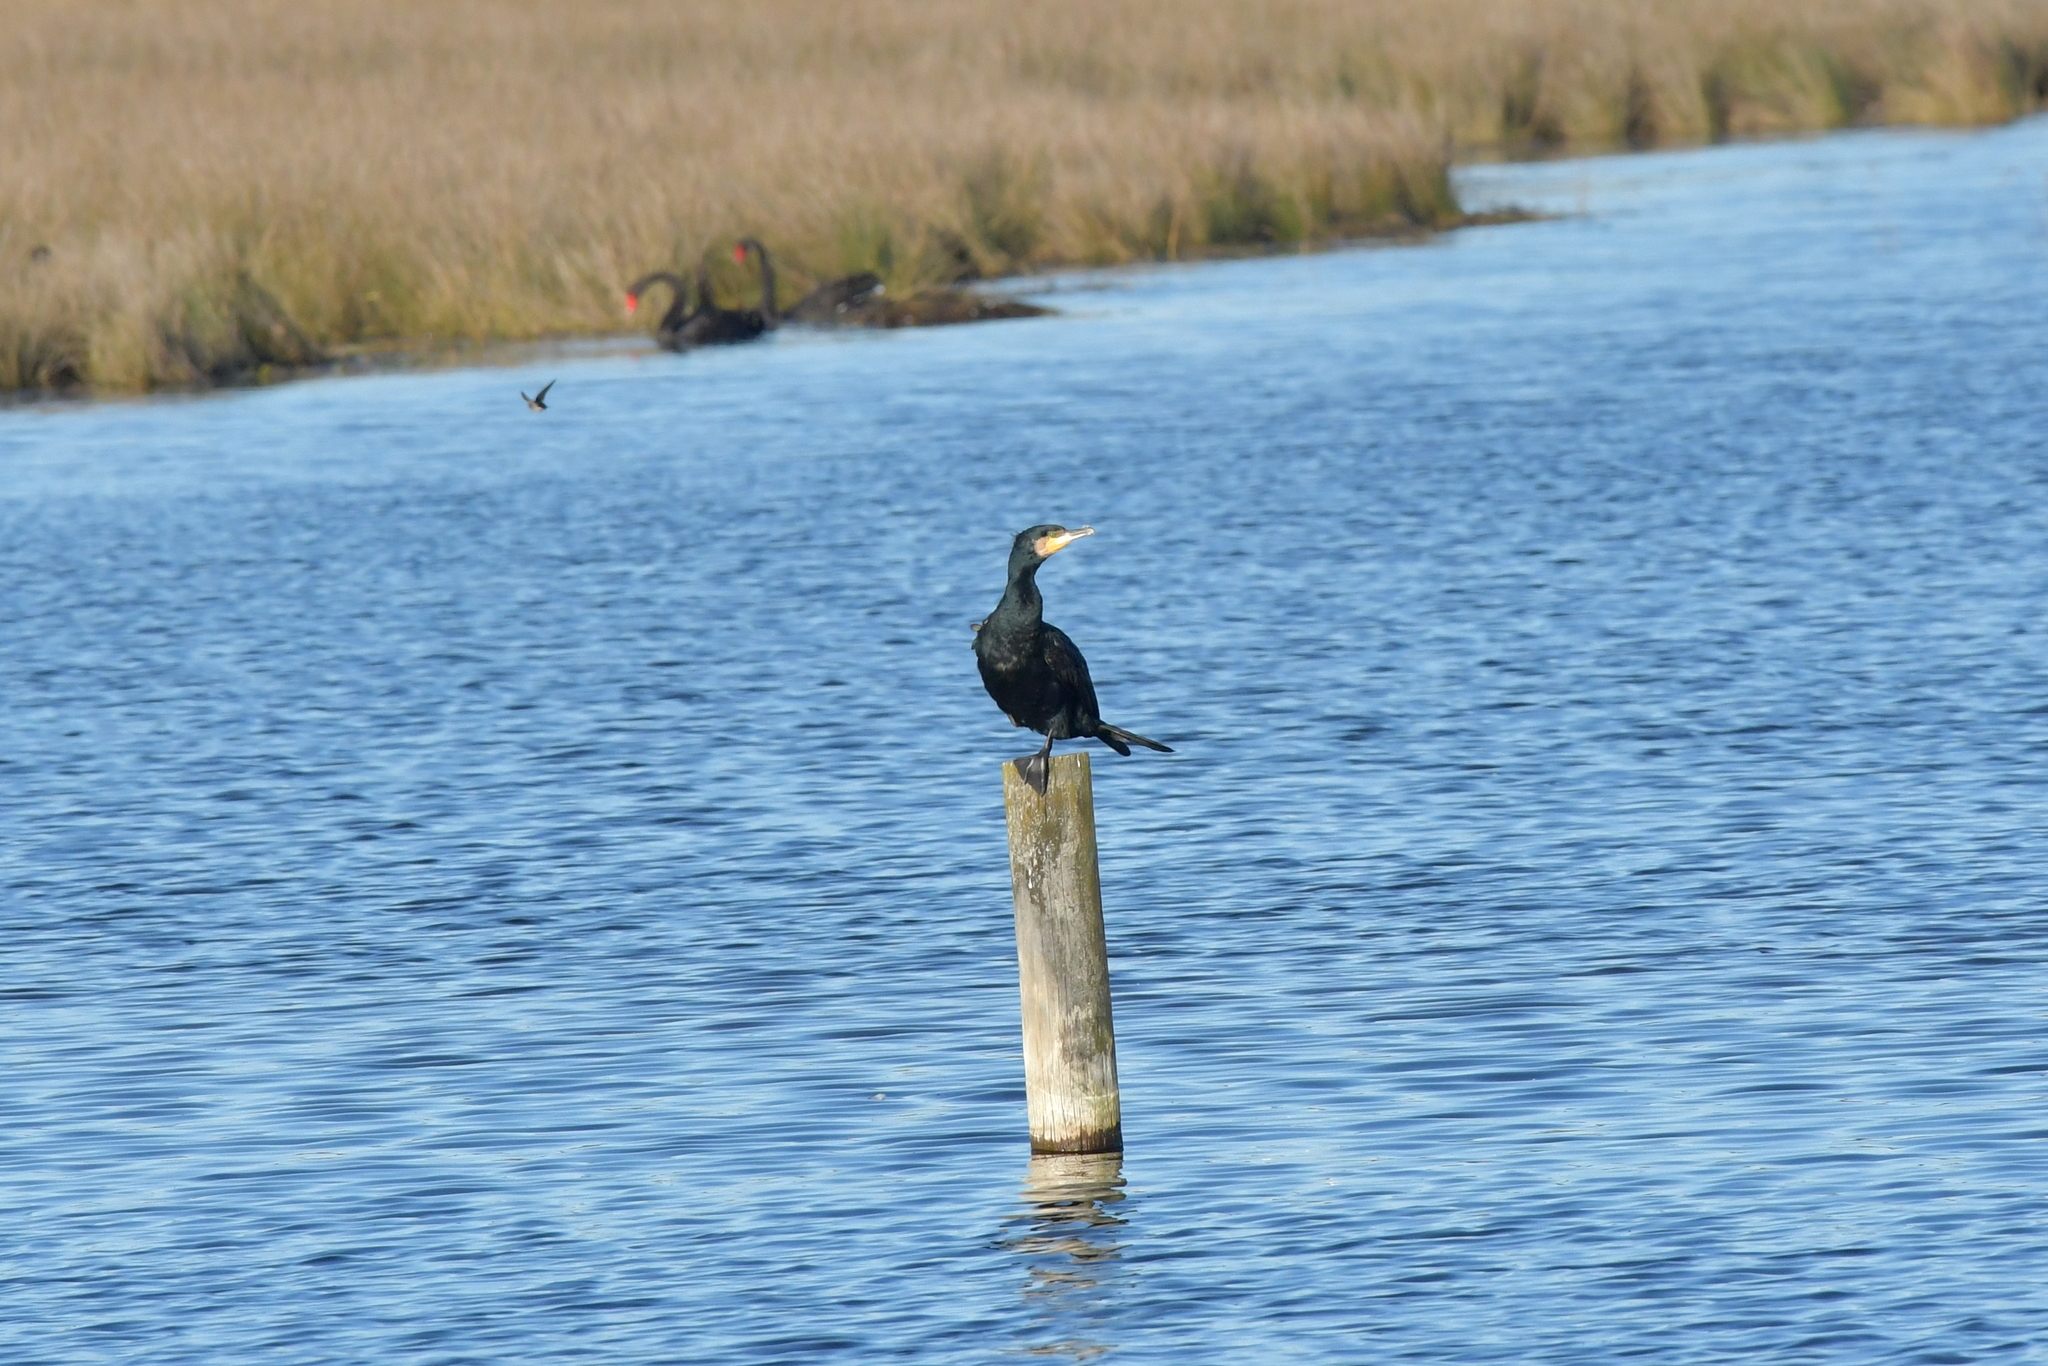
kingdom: Animalia
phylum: Chordata
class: Aves
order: Suliformes
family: Phalacrocoracidae
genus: Phalacrocorax
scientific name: Phalacrocorax carbo
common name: Great cormorant
